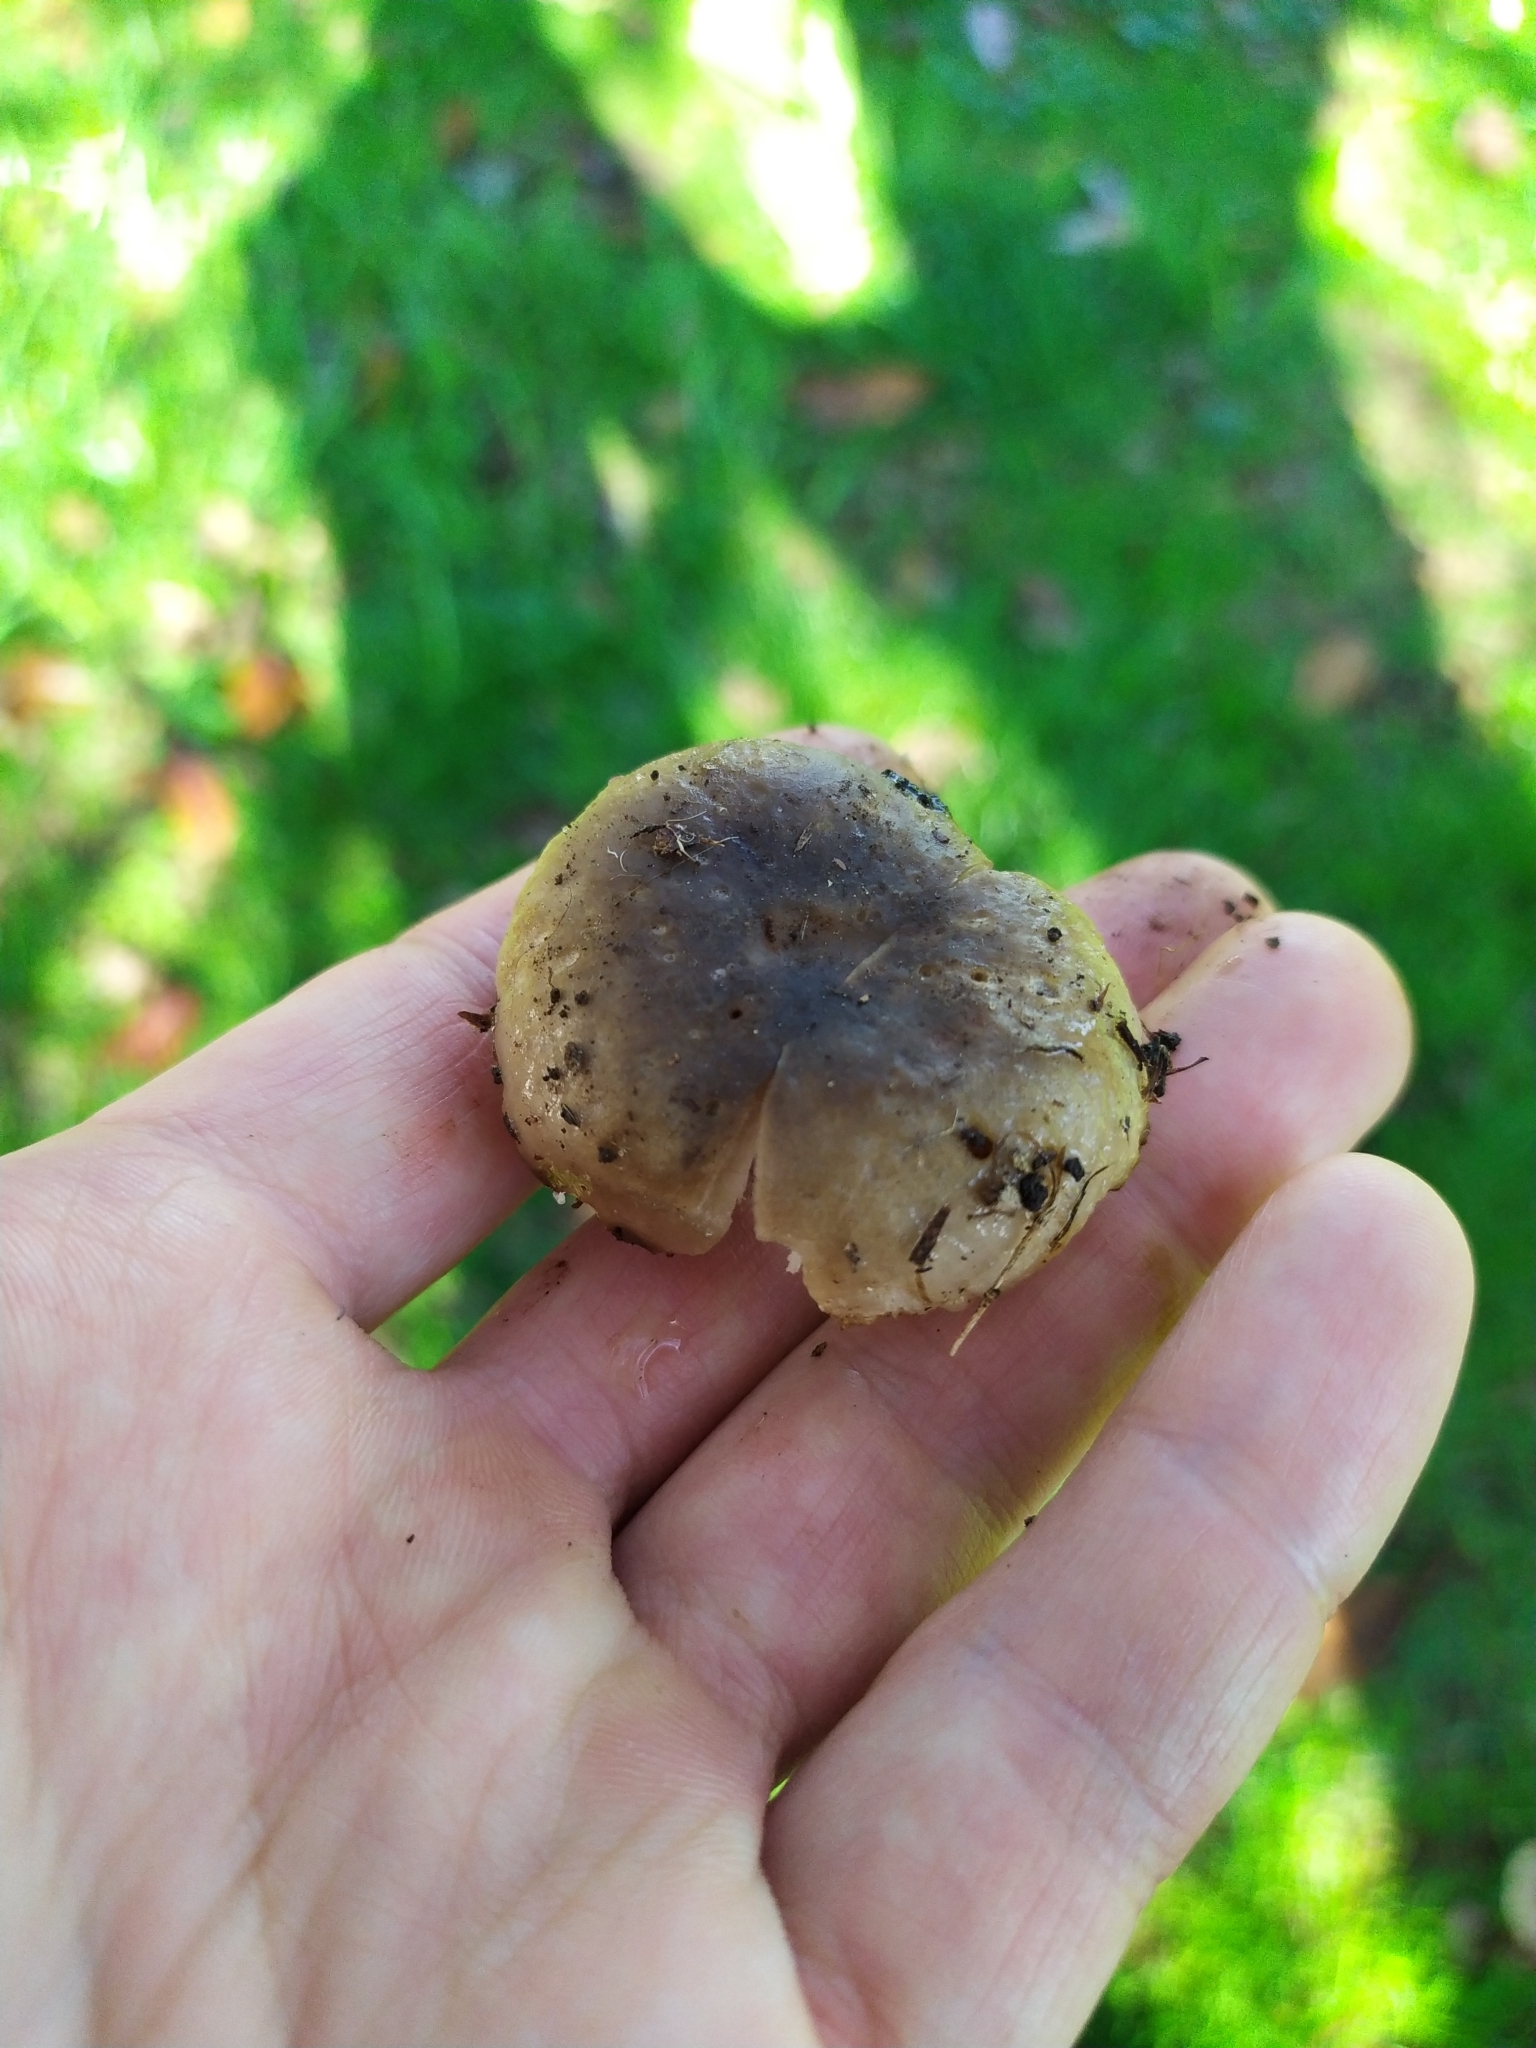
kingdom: Fungi
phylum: Basidiomycota
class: Agaricomycetes
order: Russulales
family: Russulaceae
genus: Russula
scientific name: Russula amoenolens
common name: Camembert brittlegill
